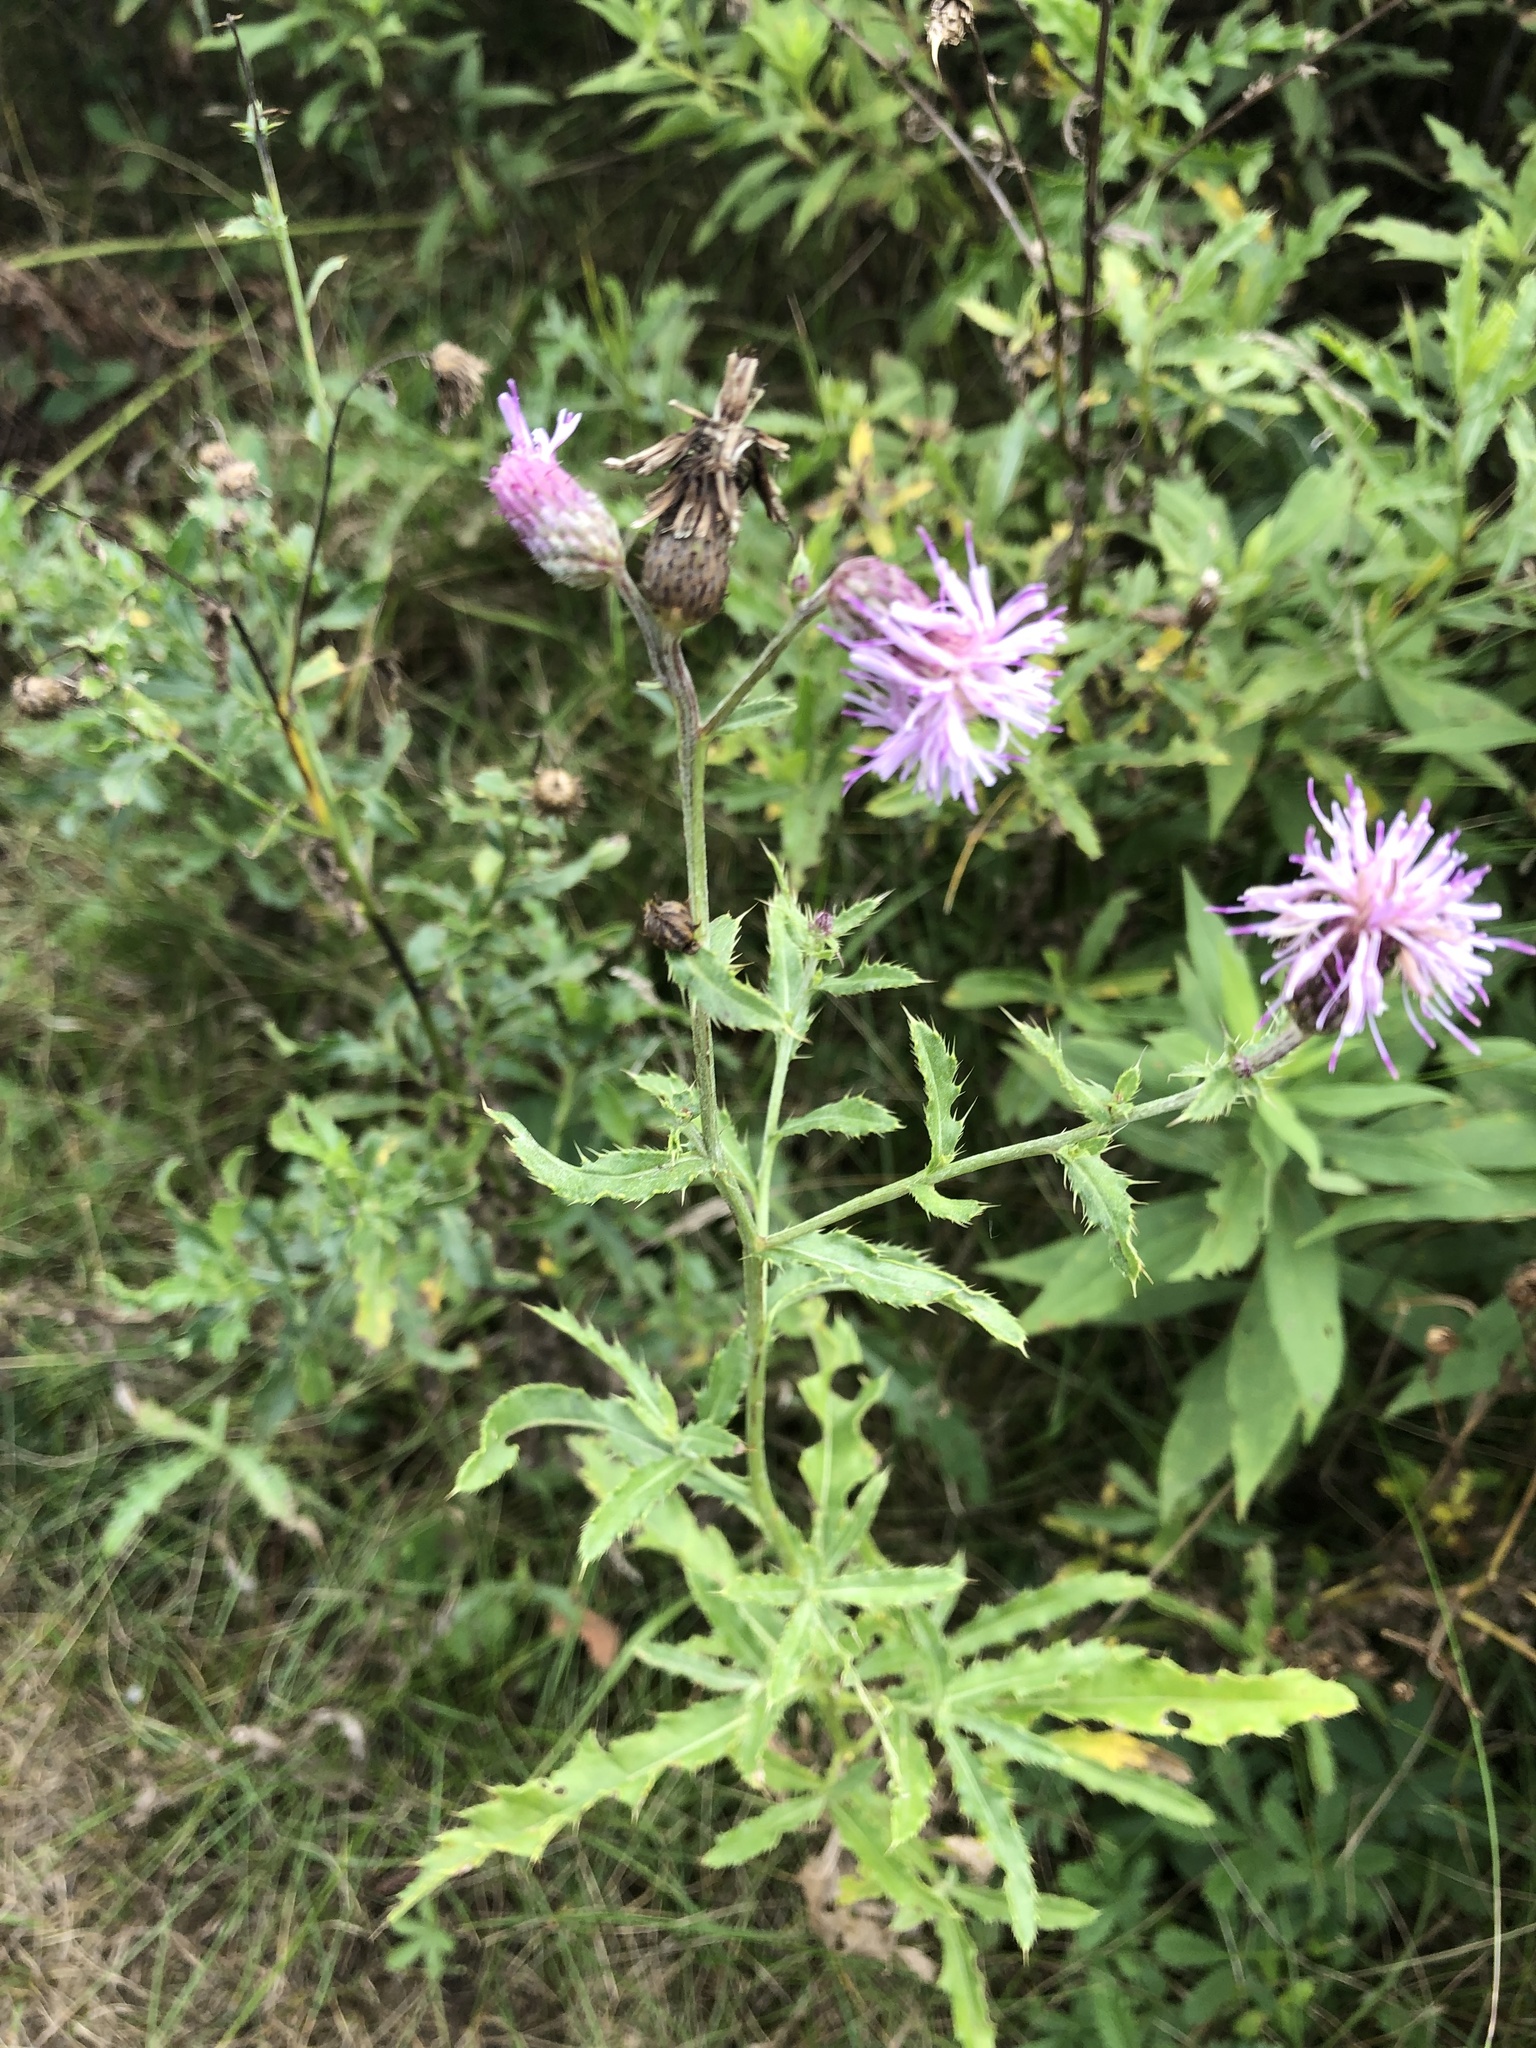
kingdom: Plantae
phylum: Tracheophyta
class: Magnoliopsida
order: Asterales
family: Asteraceae
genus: Cirsium
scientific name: Cirsium arvense
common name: Creeping thistle
